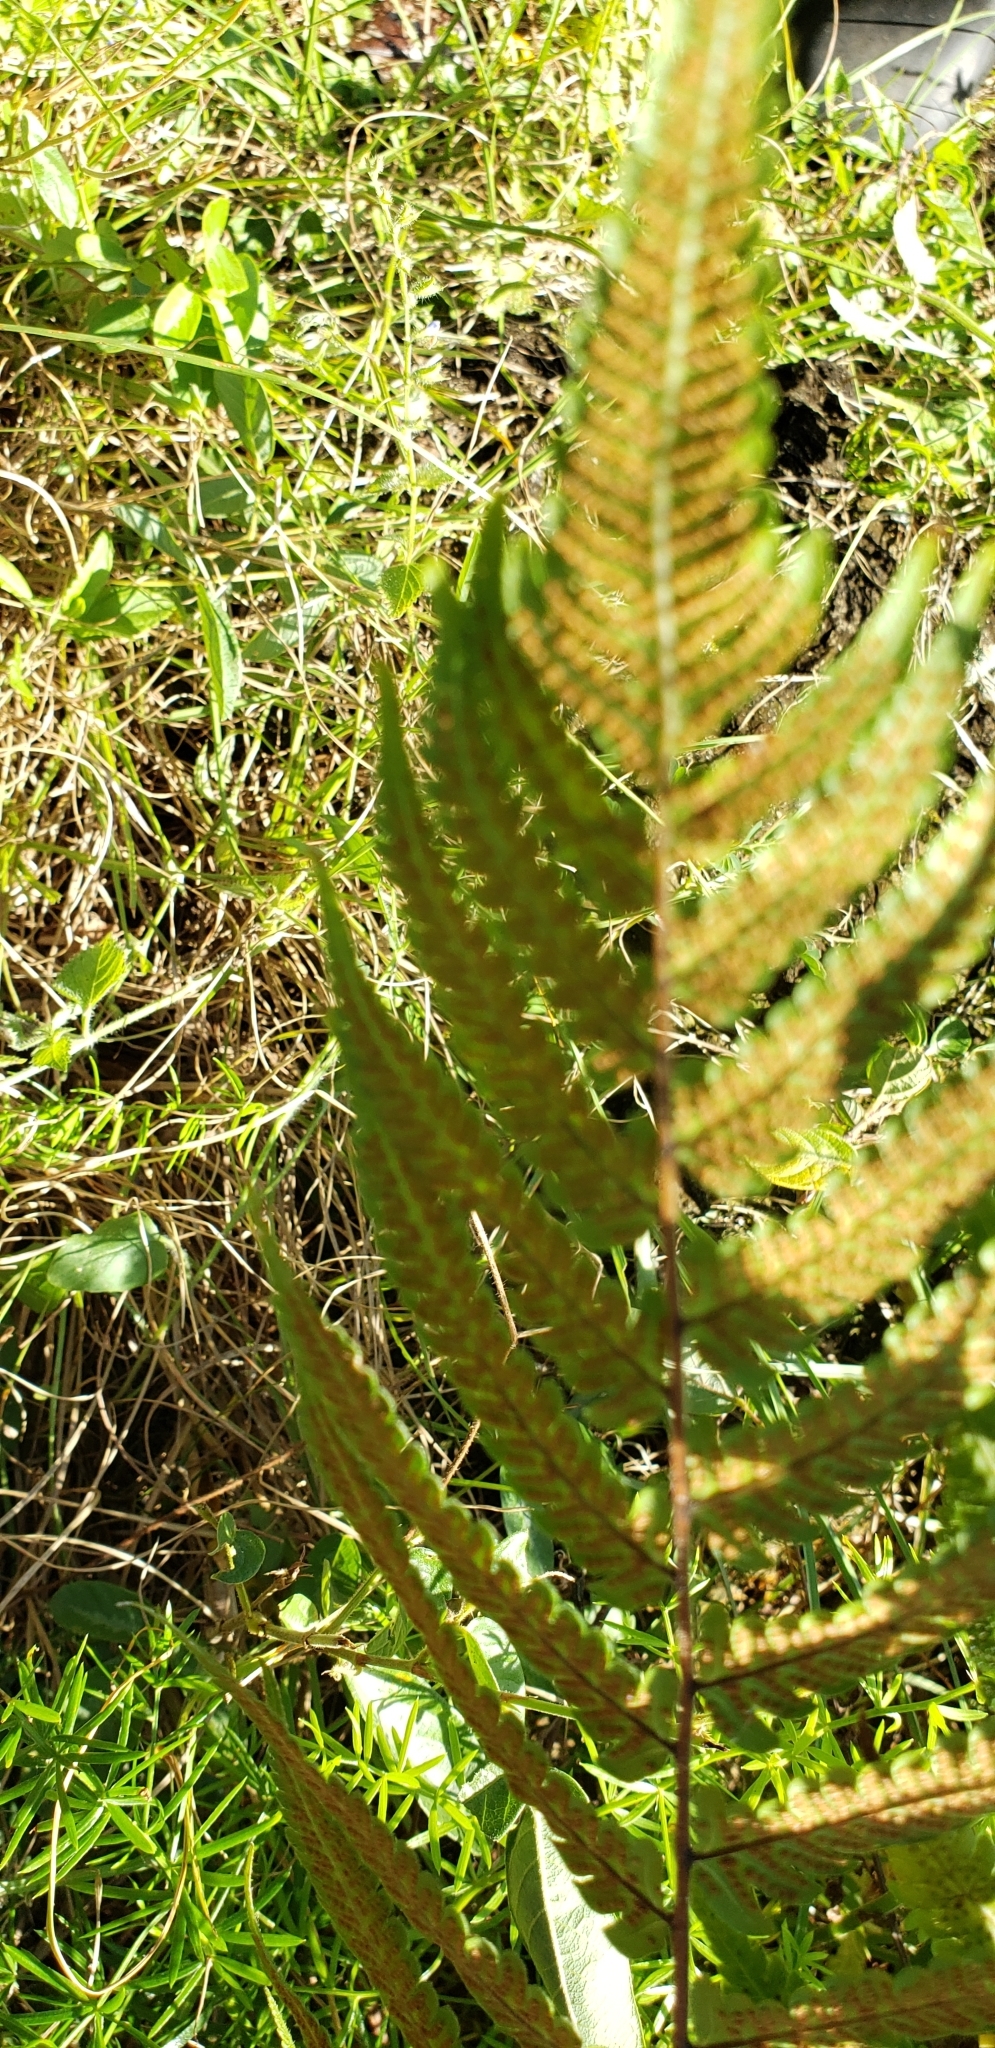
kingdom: Plantae
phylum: Tracheophyta
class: Polypodiopsida
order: Polypodiales
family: Thelypteridaceae
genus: Christella
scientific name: Christella dentata
